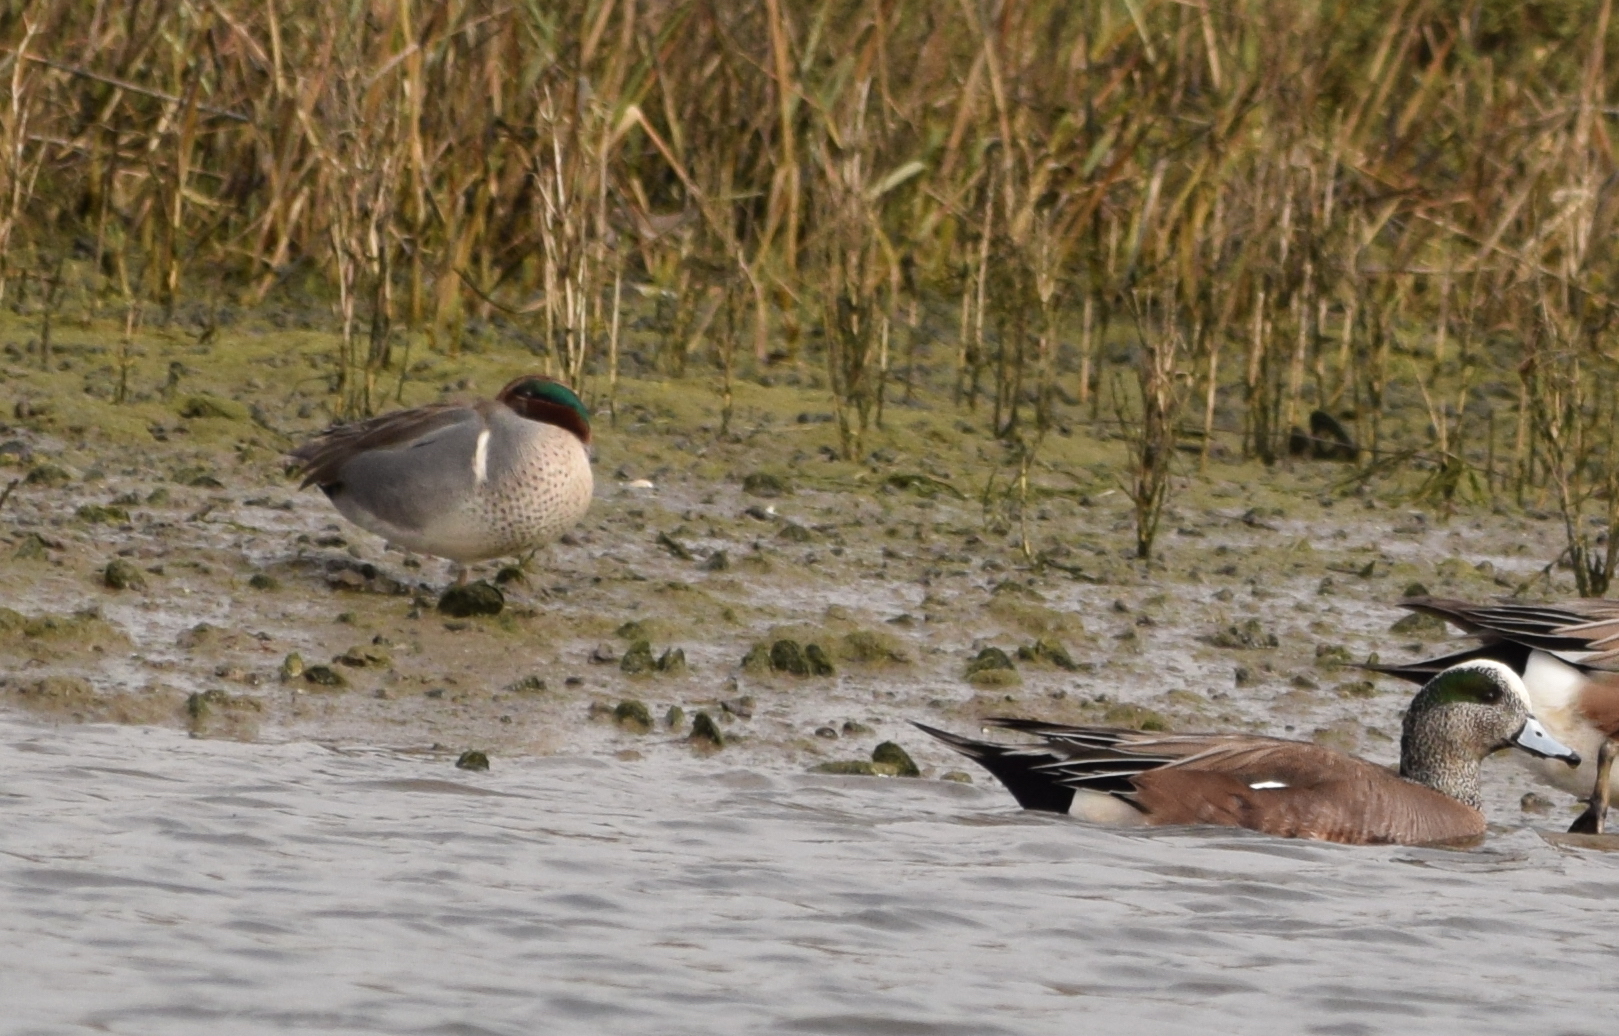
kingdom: Animalia
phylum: Chordata
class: Aves
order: Anseriformes
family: Anatidae
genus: Anas
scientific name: Anas crecca
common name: Eurasian teal
